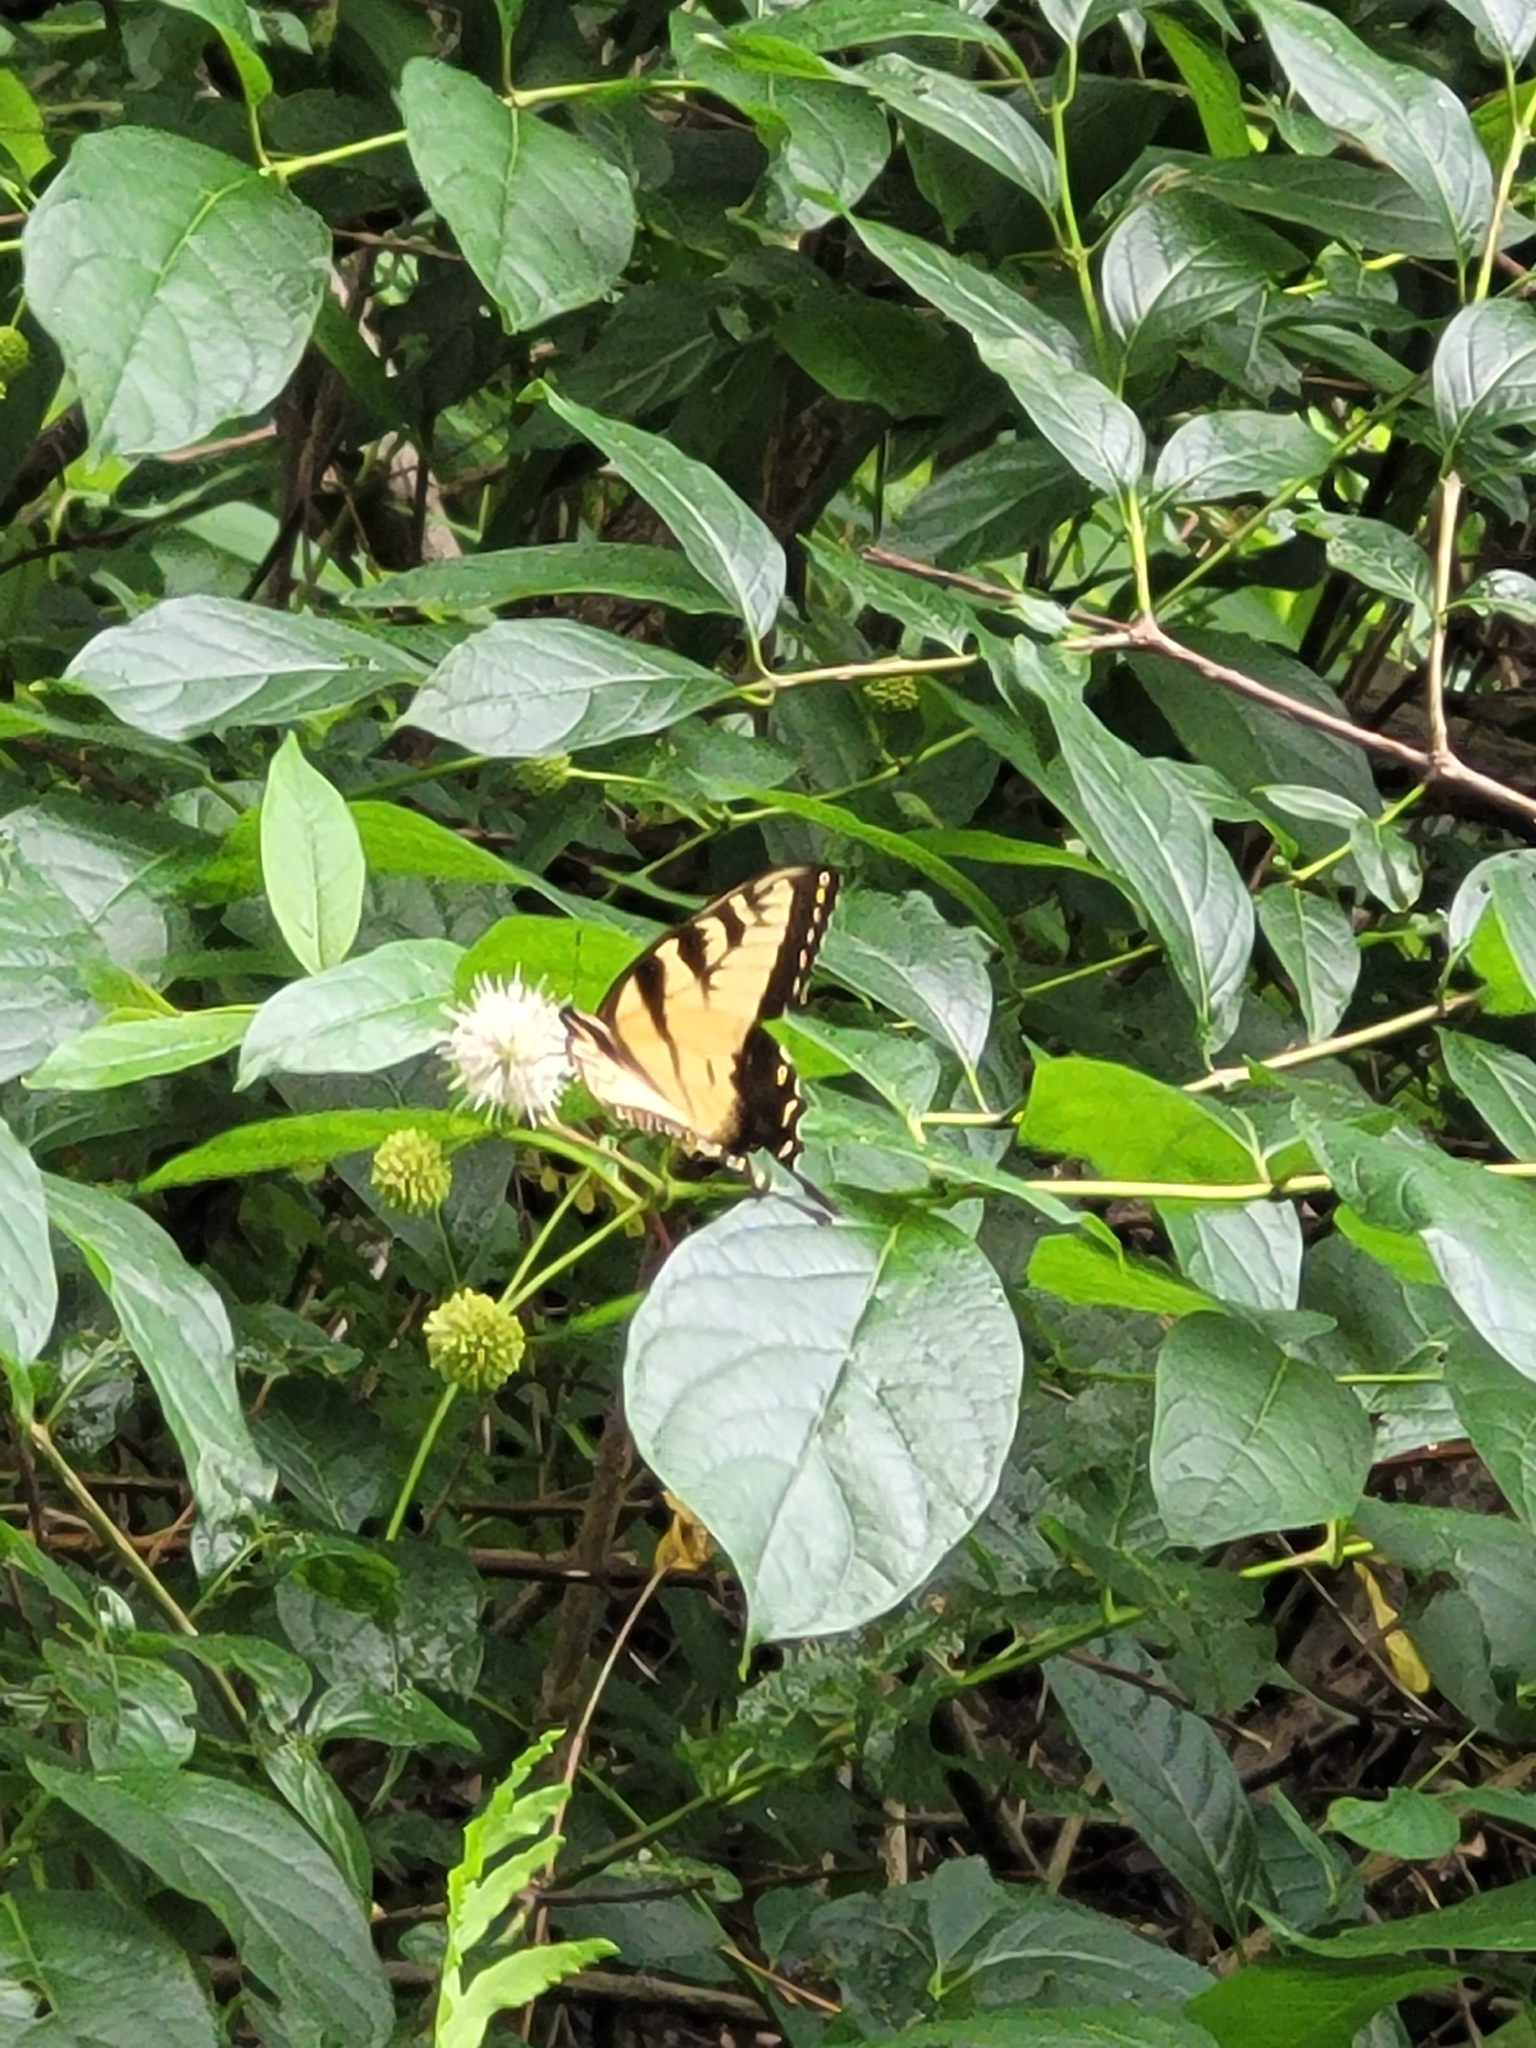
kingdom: Animalia
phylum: Arthropoda
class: Insecta
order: Lepidoptera
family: Papilionidae
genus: Papilio
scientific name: Papilio glaucus
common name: Tiger swallowtail
